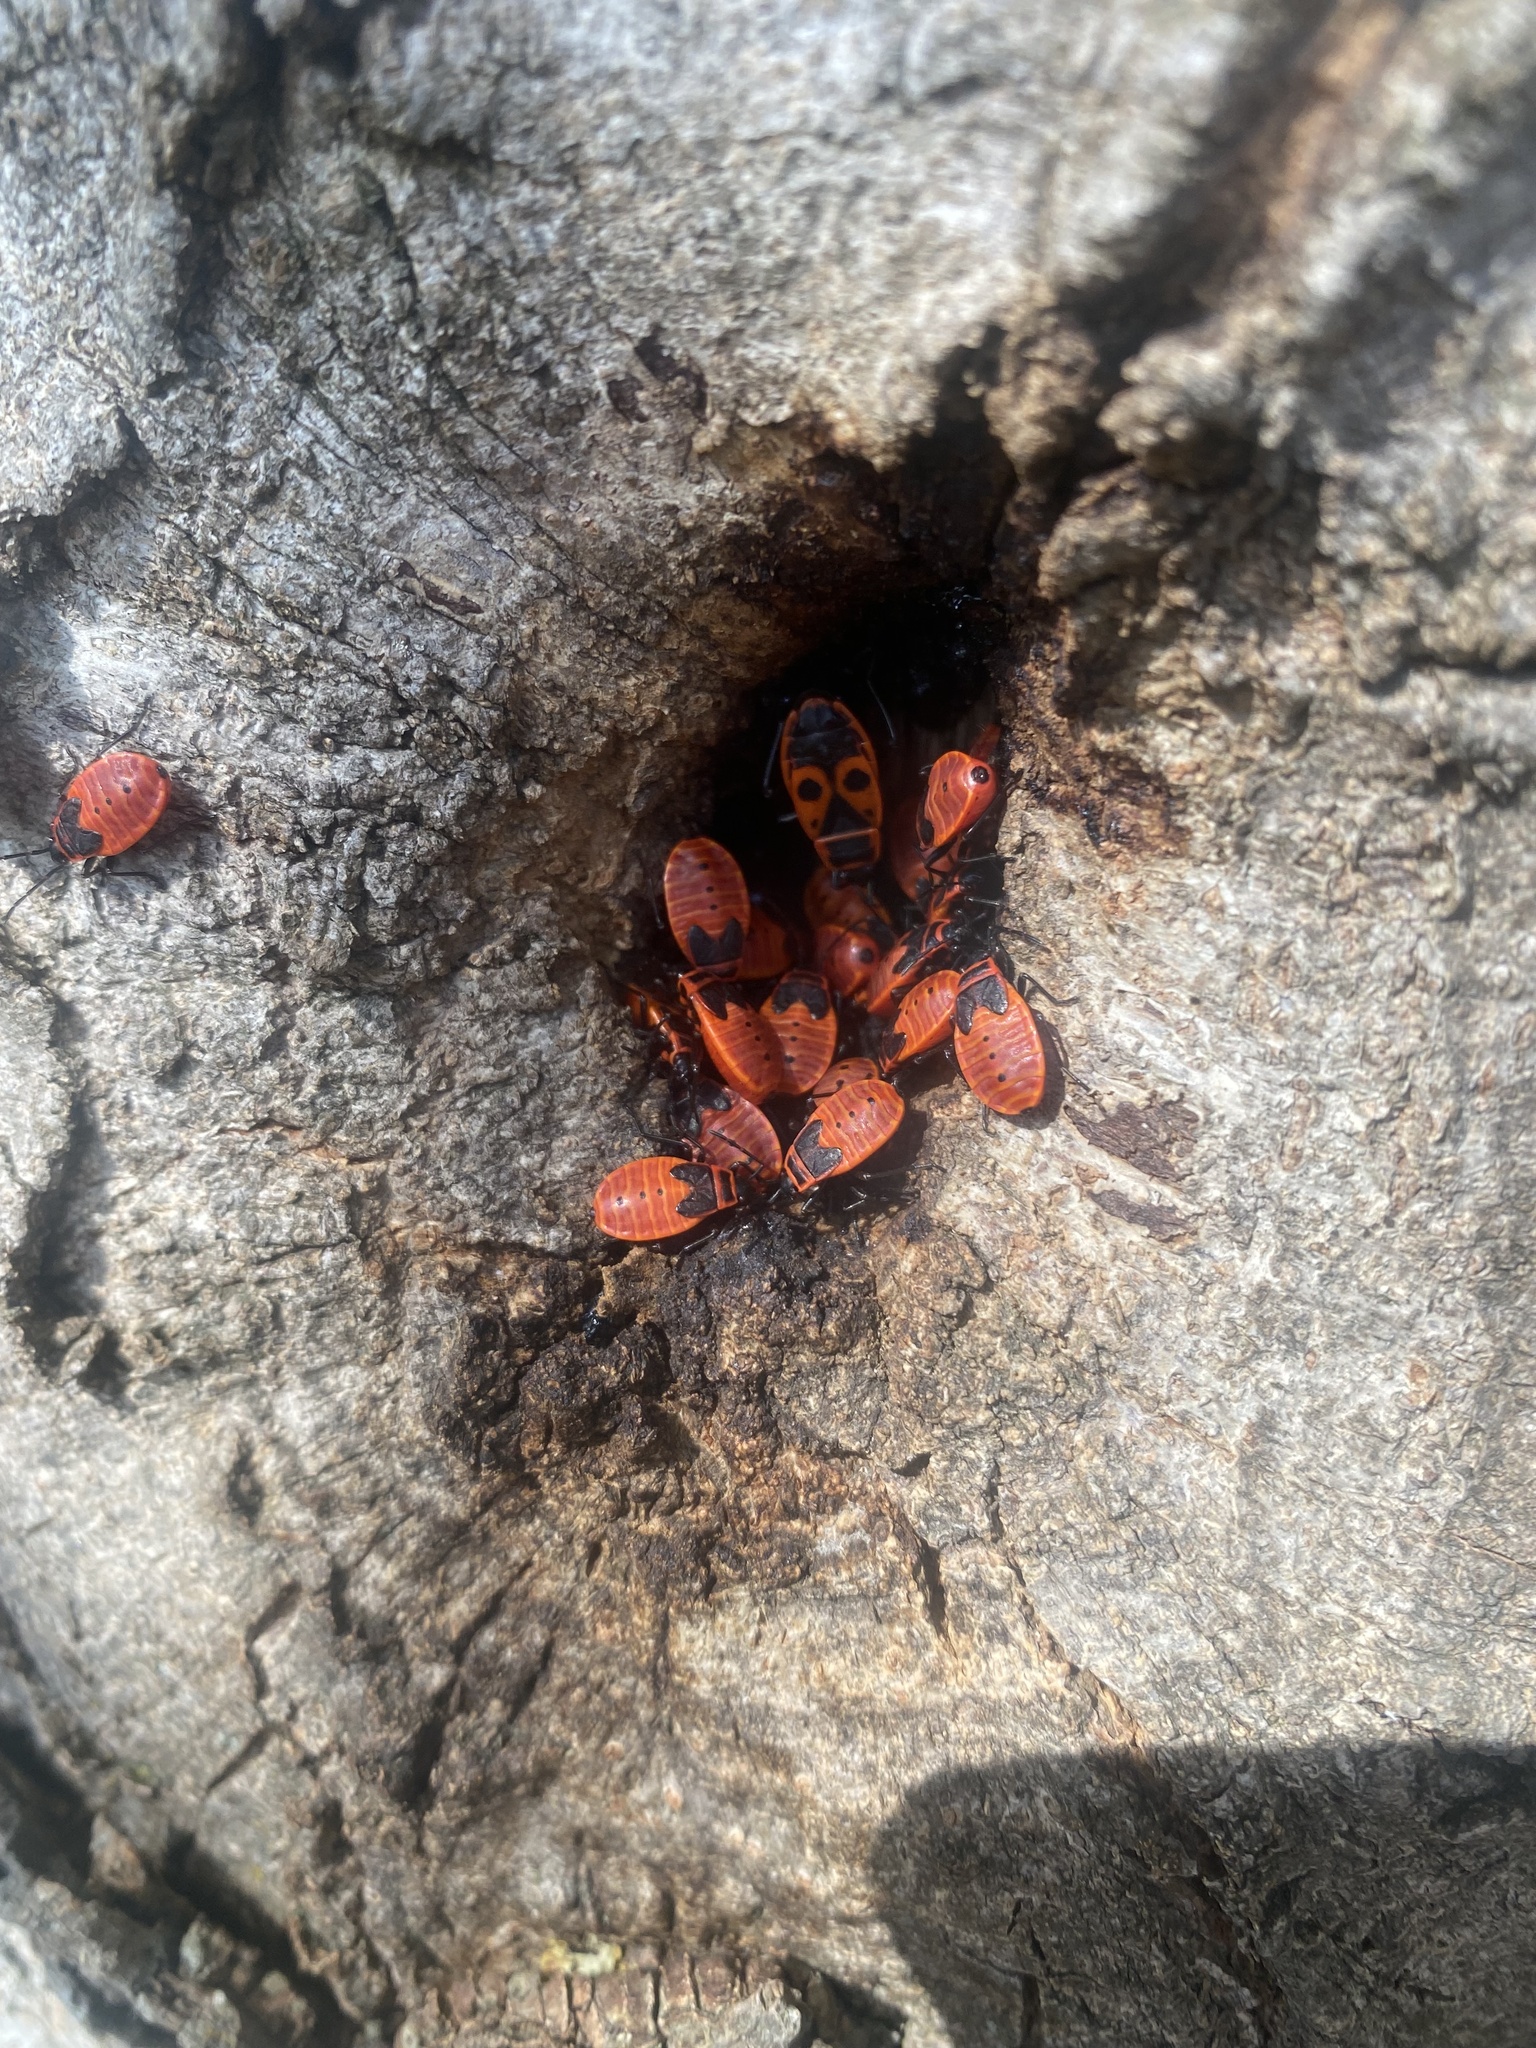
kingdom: Animalia
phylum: Arthropoda
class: Insecta
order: Hemiptera
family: Pyrrhocoridae
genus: Pyrrhocoris
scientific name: Pyrrhocoris apterus
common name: Firebug
